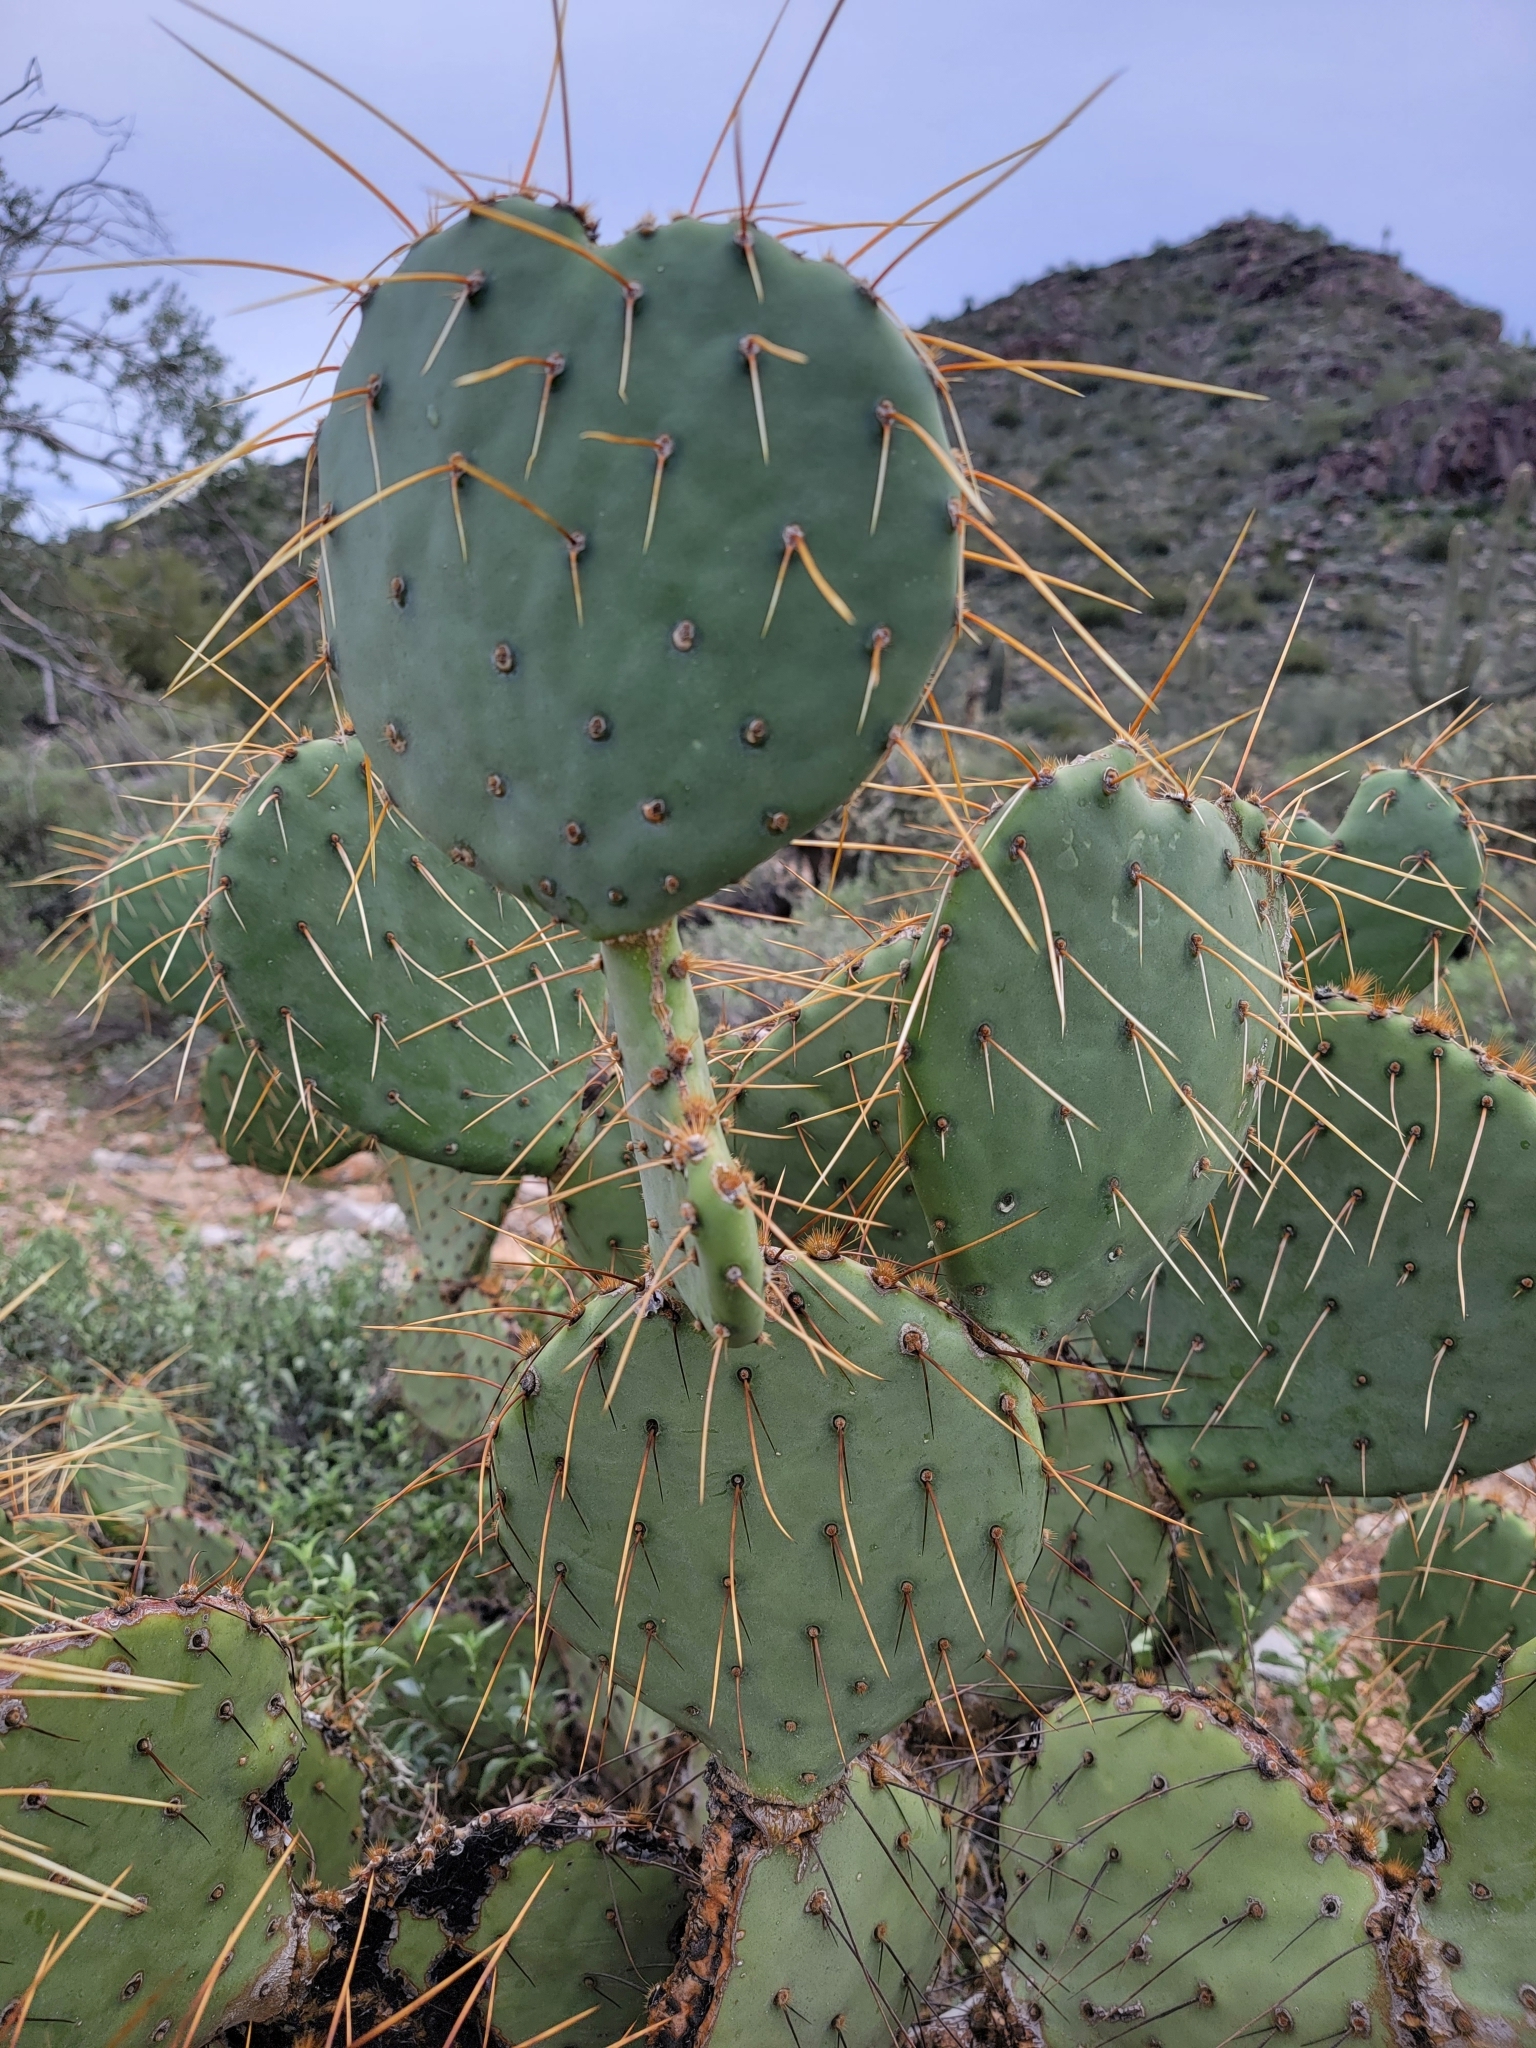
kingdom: Plantae
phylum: Tracheophyta
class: Magnoliopsida
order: Caryophyllales
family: Cactaceae
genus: Opuntia
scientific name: Opuntia engelmannii
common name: Cactus-apple
